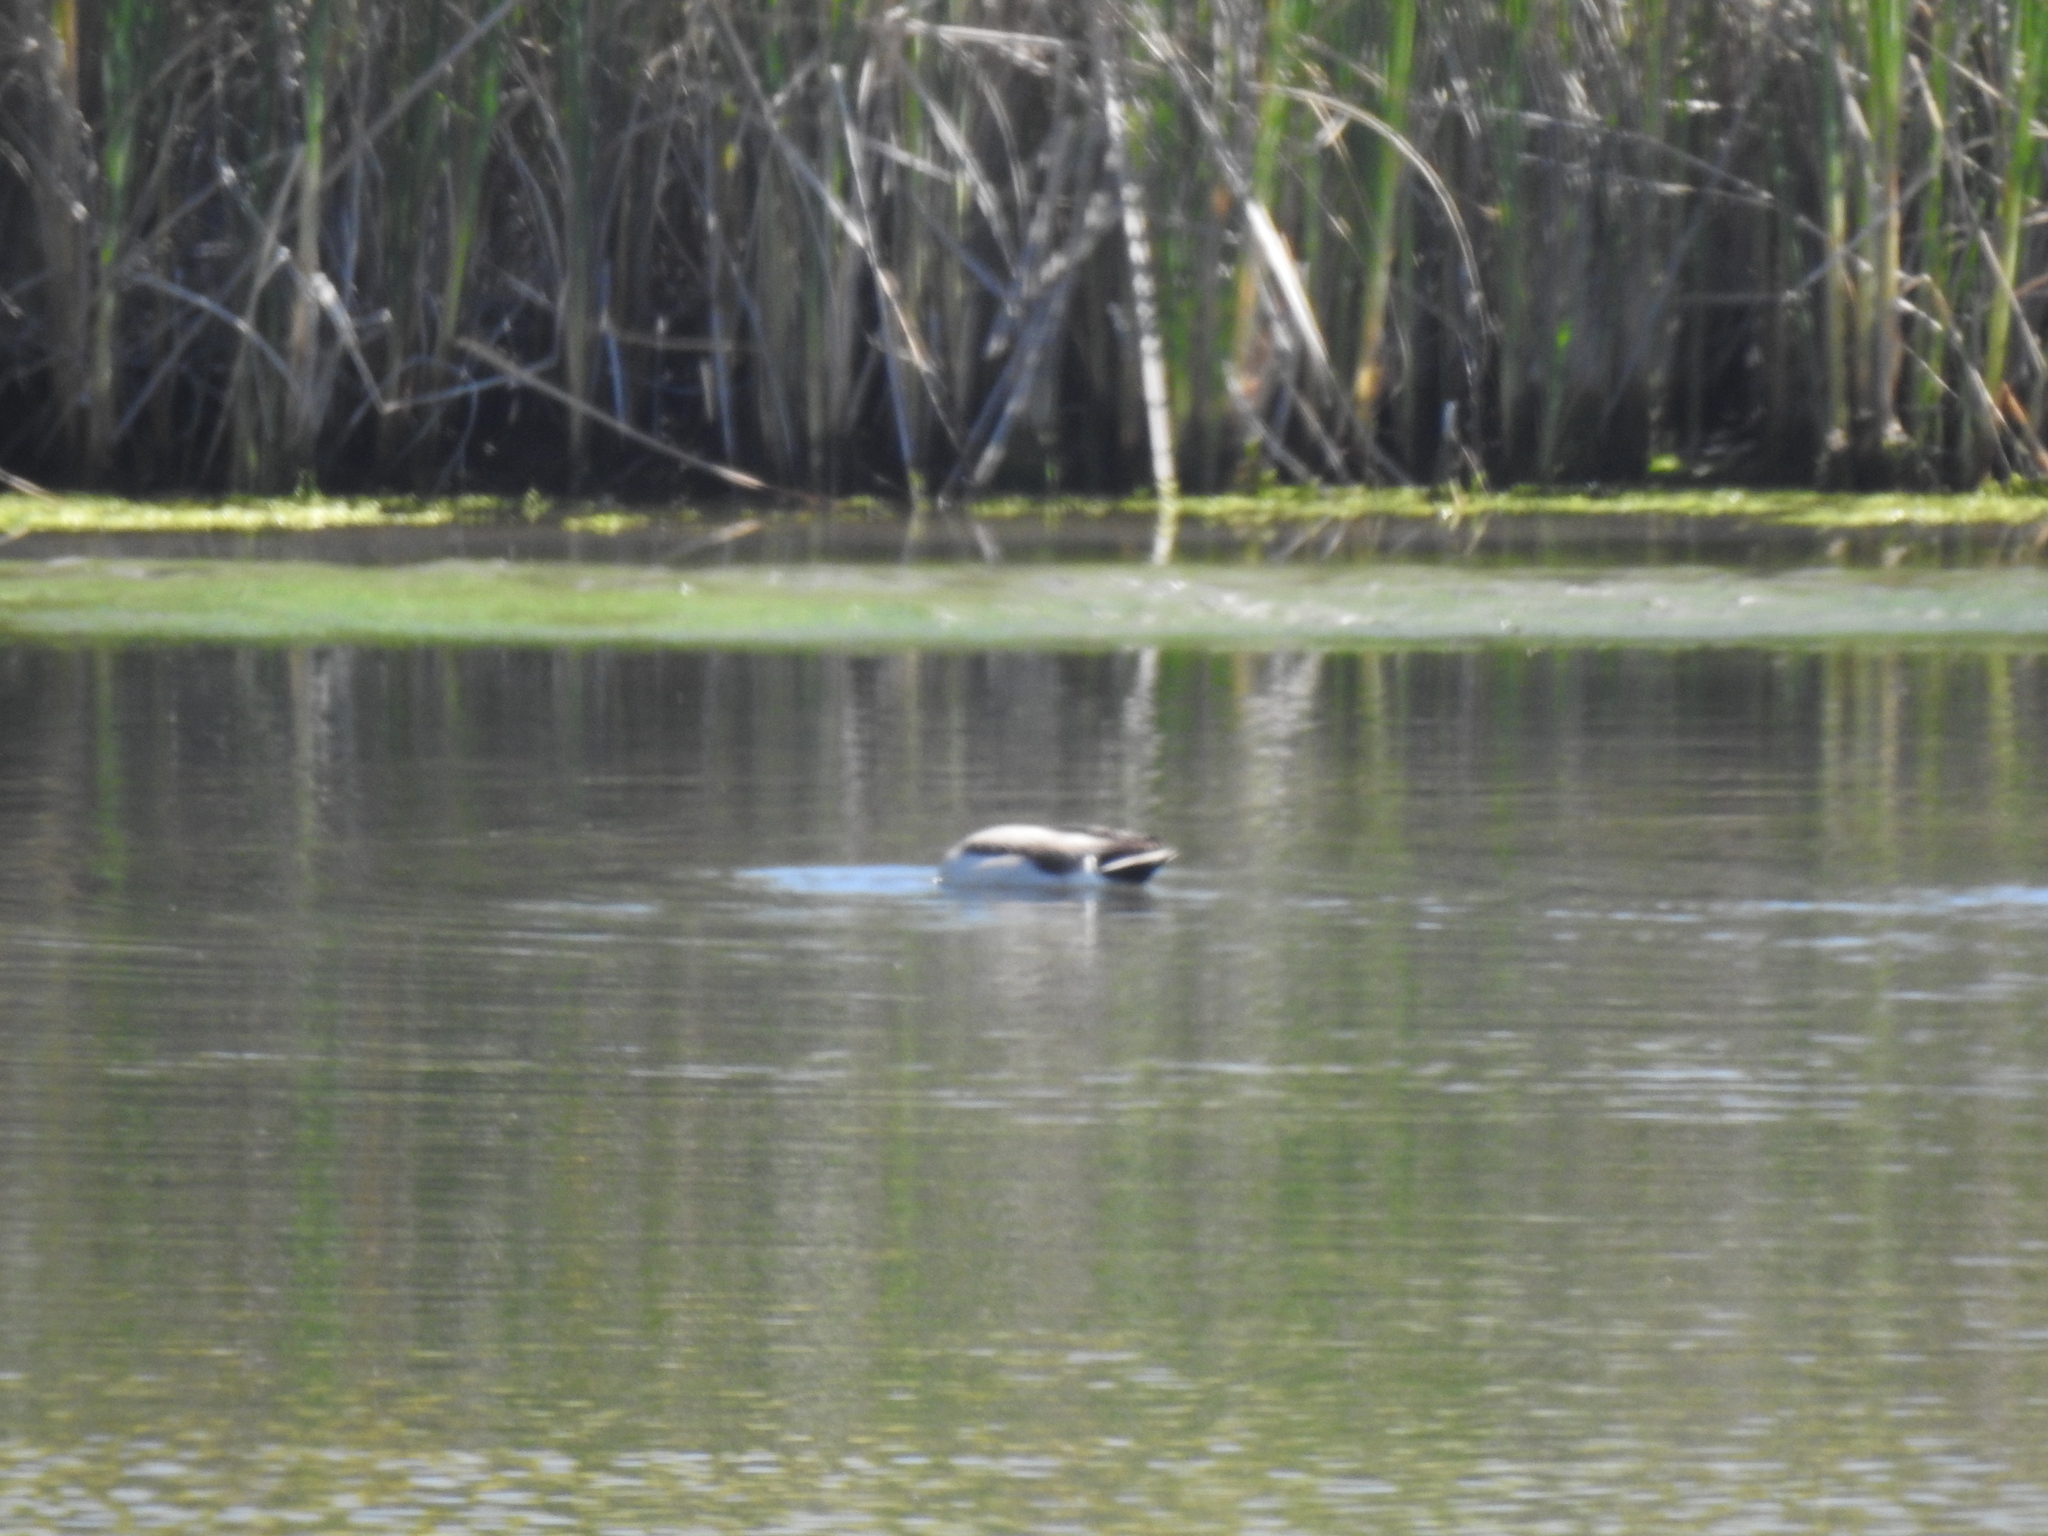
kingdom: Animalia
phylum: Chordata
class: Aves
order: Anseriformes
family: Anatidae
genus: Anas
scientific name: Anas platyrhynchos
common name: Mallard
